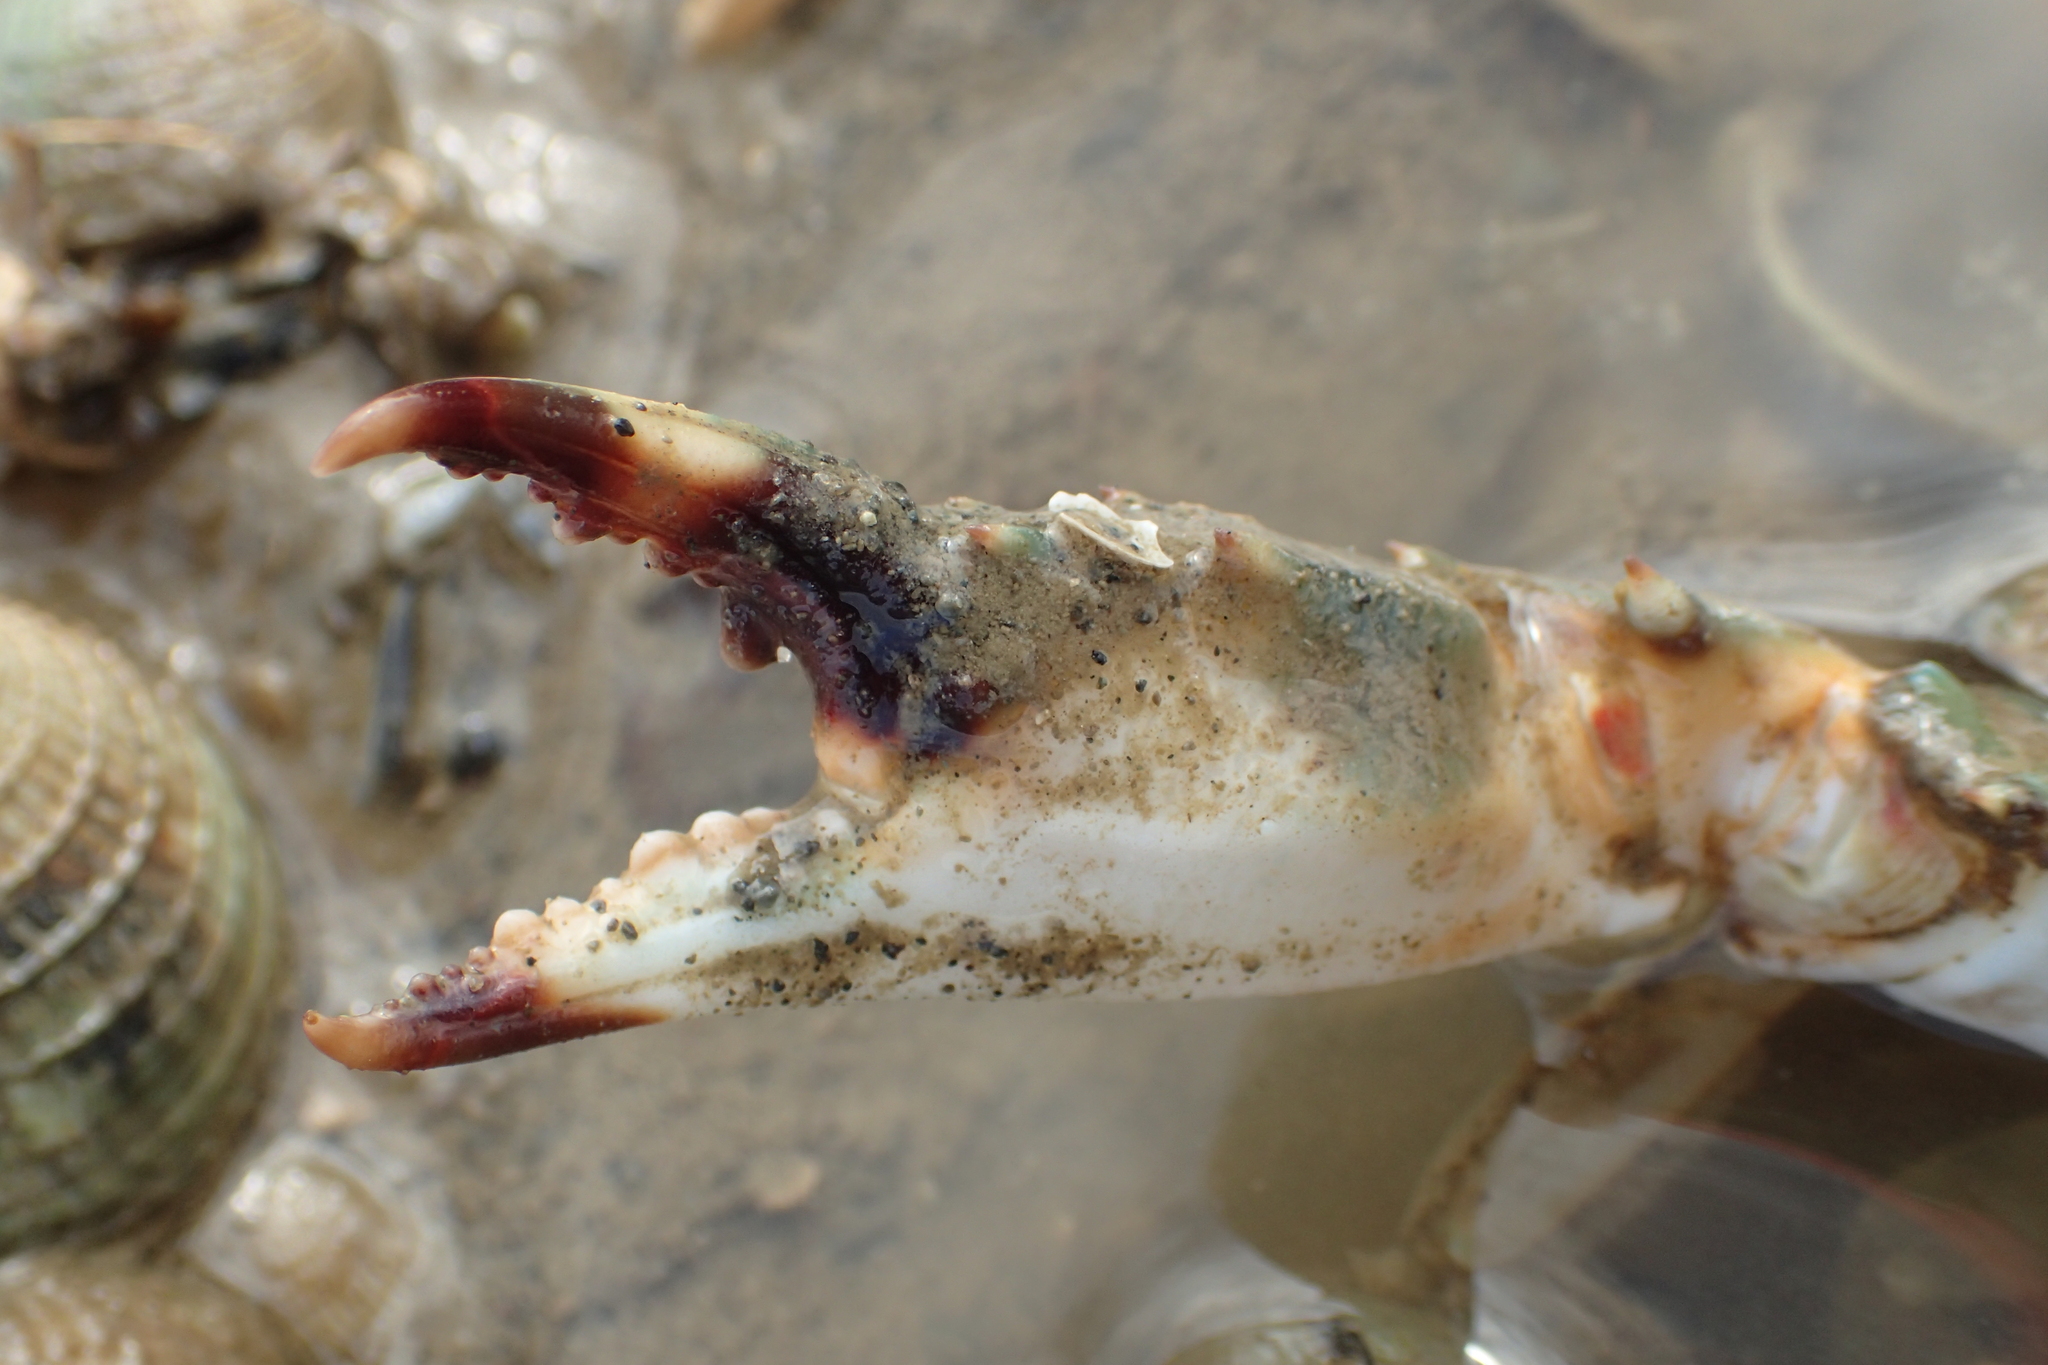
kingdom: Animalia
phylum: Arthropoda
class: Malacostraca
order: Decapoda
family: Portunidae
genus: Charybdis
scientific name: Charybdis japonica
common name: Asian paddle crab
